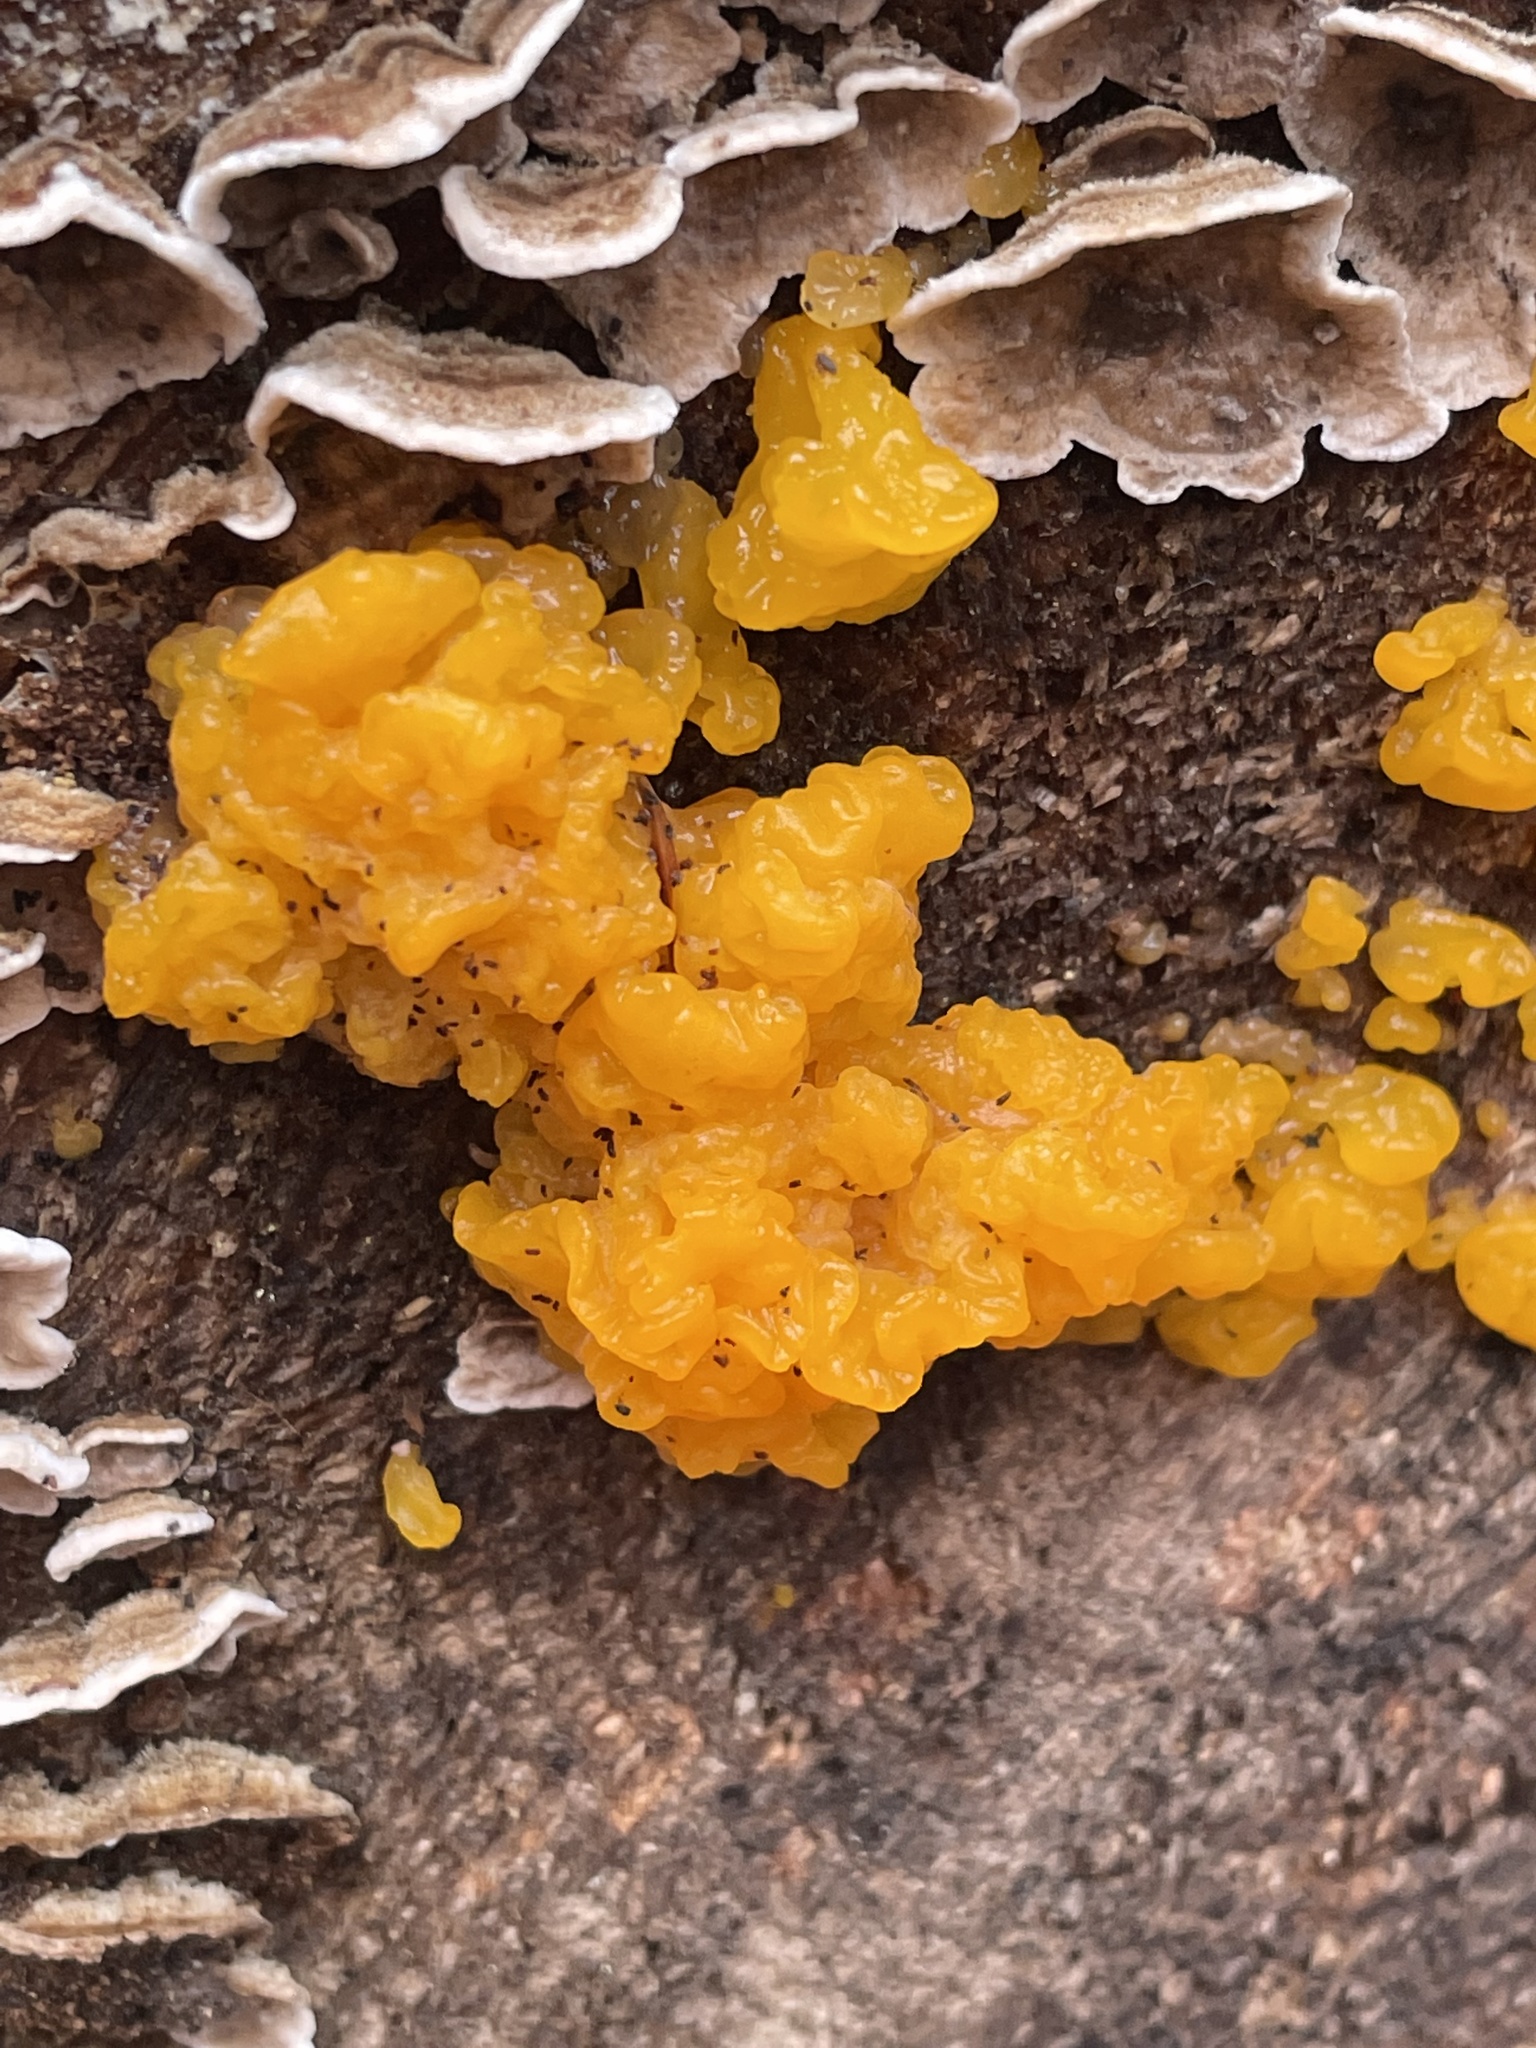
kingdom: Fungi
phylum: Basidiomycota
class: Dacrymycetes
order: Dacrymycetales
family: Dacrymycetaceae
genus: Dacrymyces
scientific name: Dacrymyces chrysospermus
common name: Orange jelly spot
